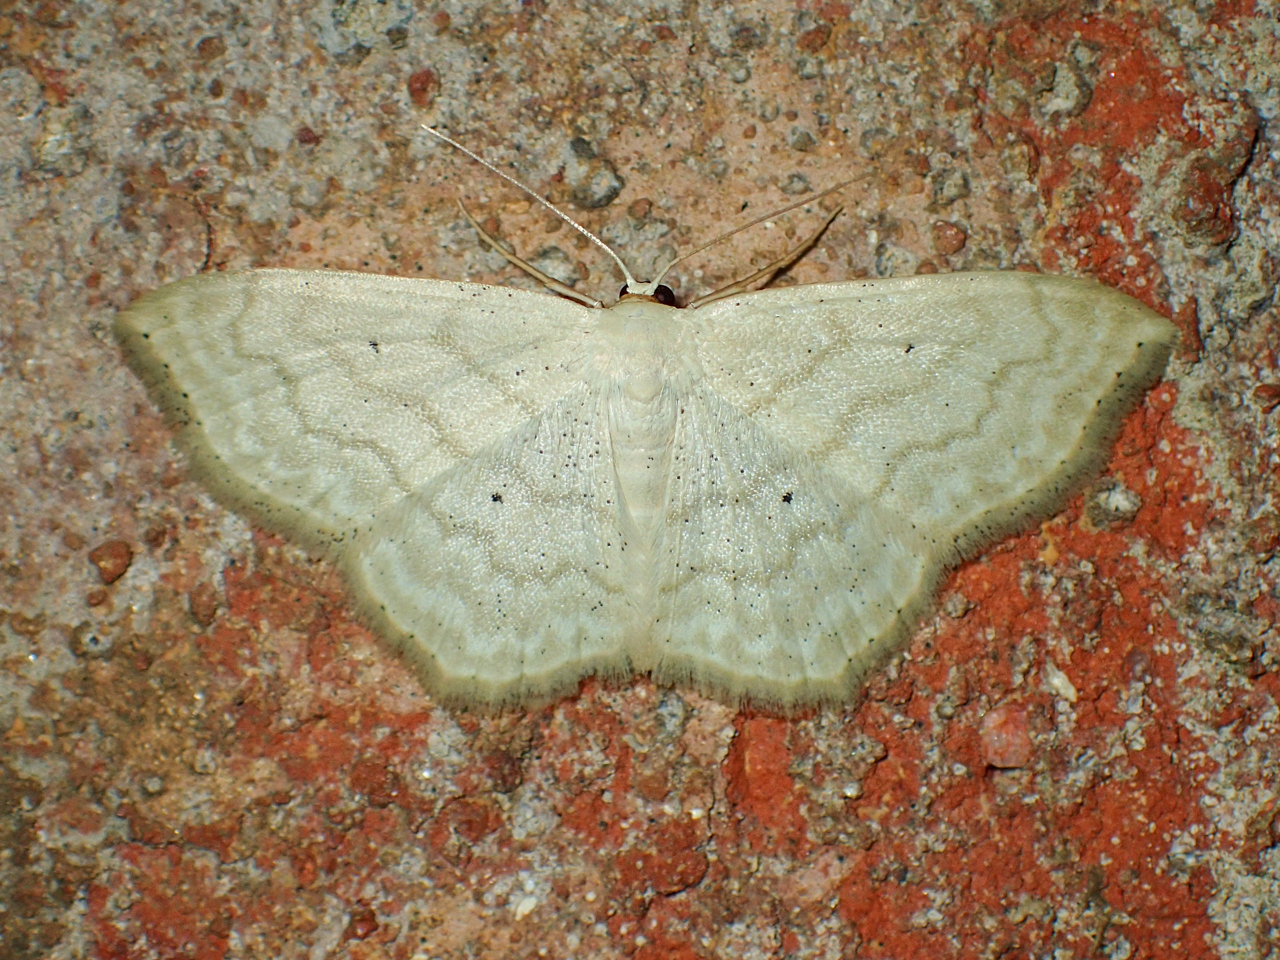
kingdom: Animalia
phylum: Arthropoda
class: Insecta
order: Lepidoptera
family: Geometridae
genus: Scopula
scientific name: Scopula limboundata
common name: Large lace border
